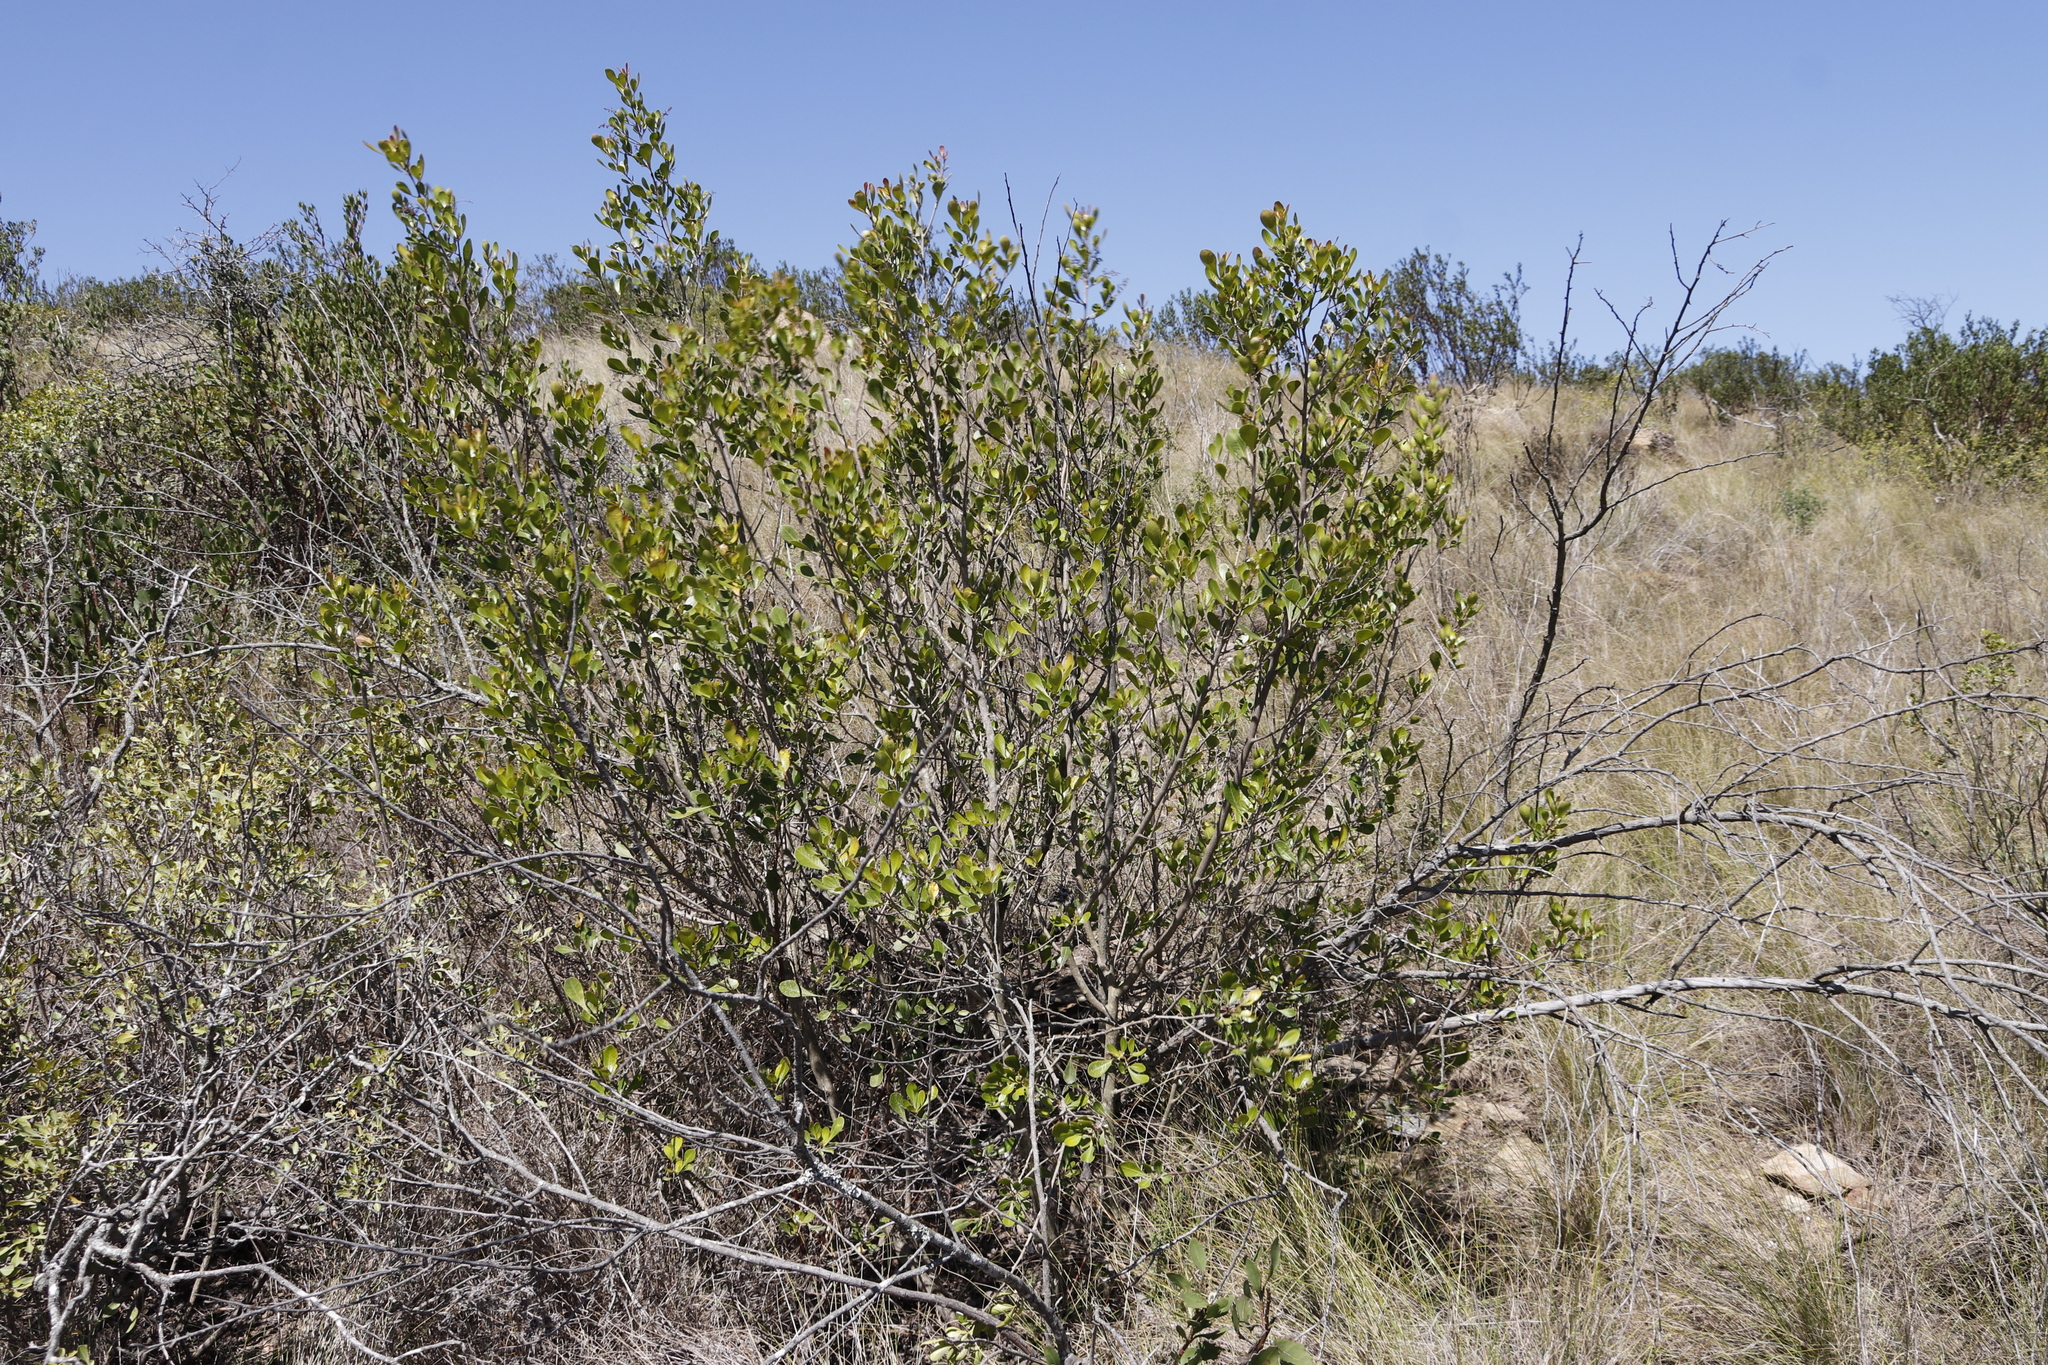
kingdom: Plantae
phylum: Tracheophyta
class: Magnoliopsida
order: Sapindales
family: Anacardiaceae
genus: Searsia
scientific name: Searsia lucida
